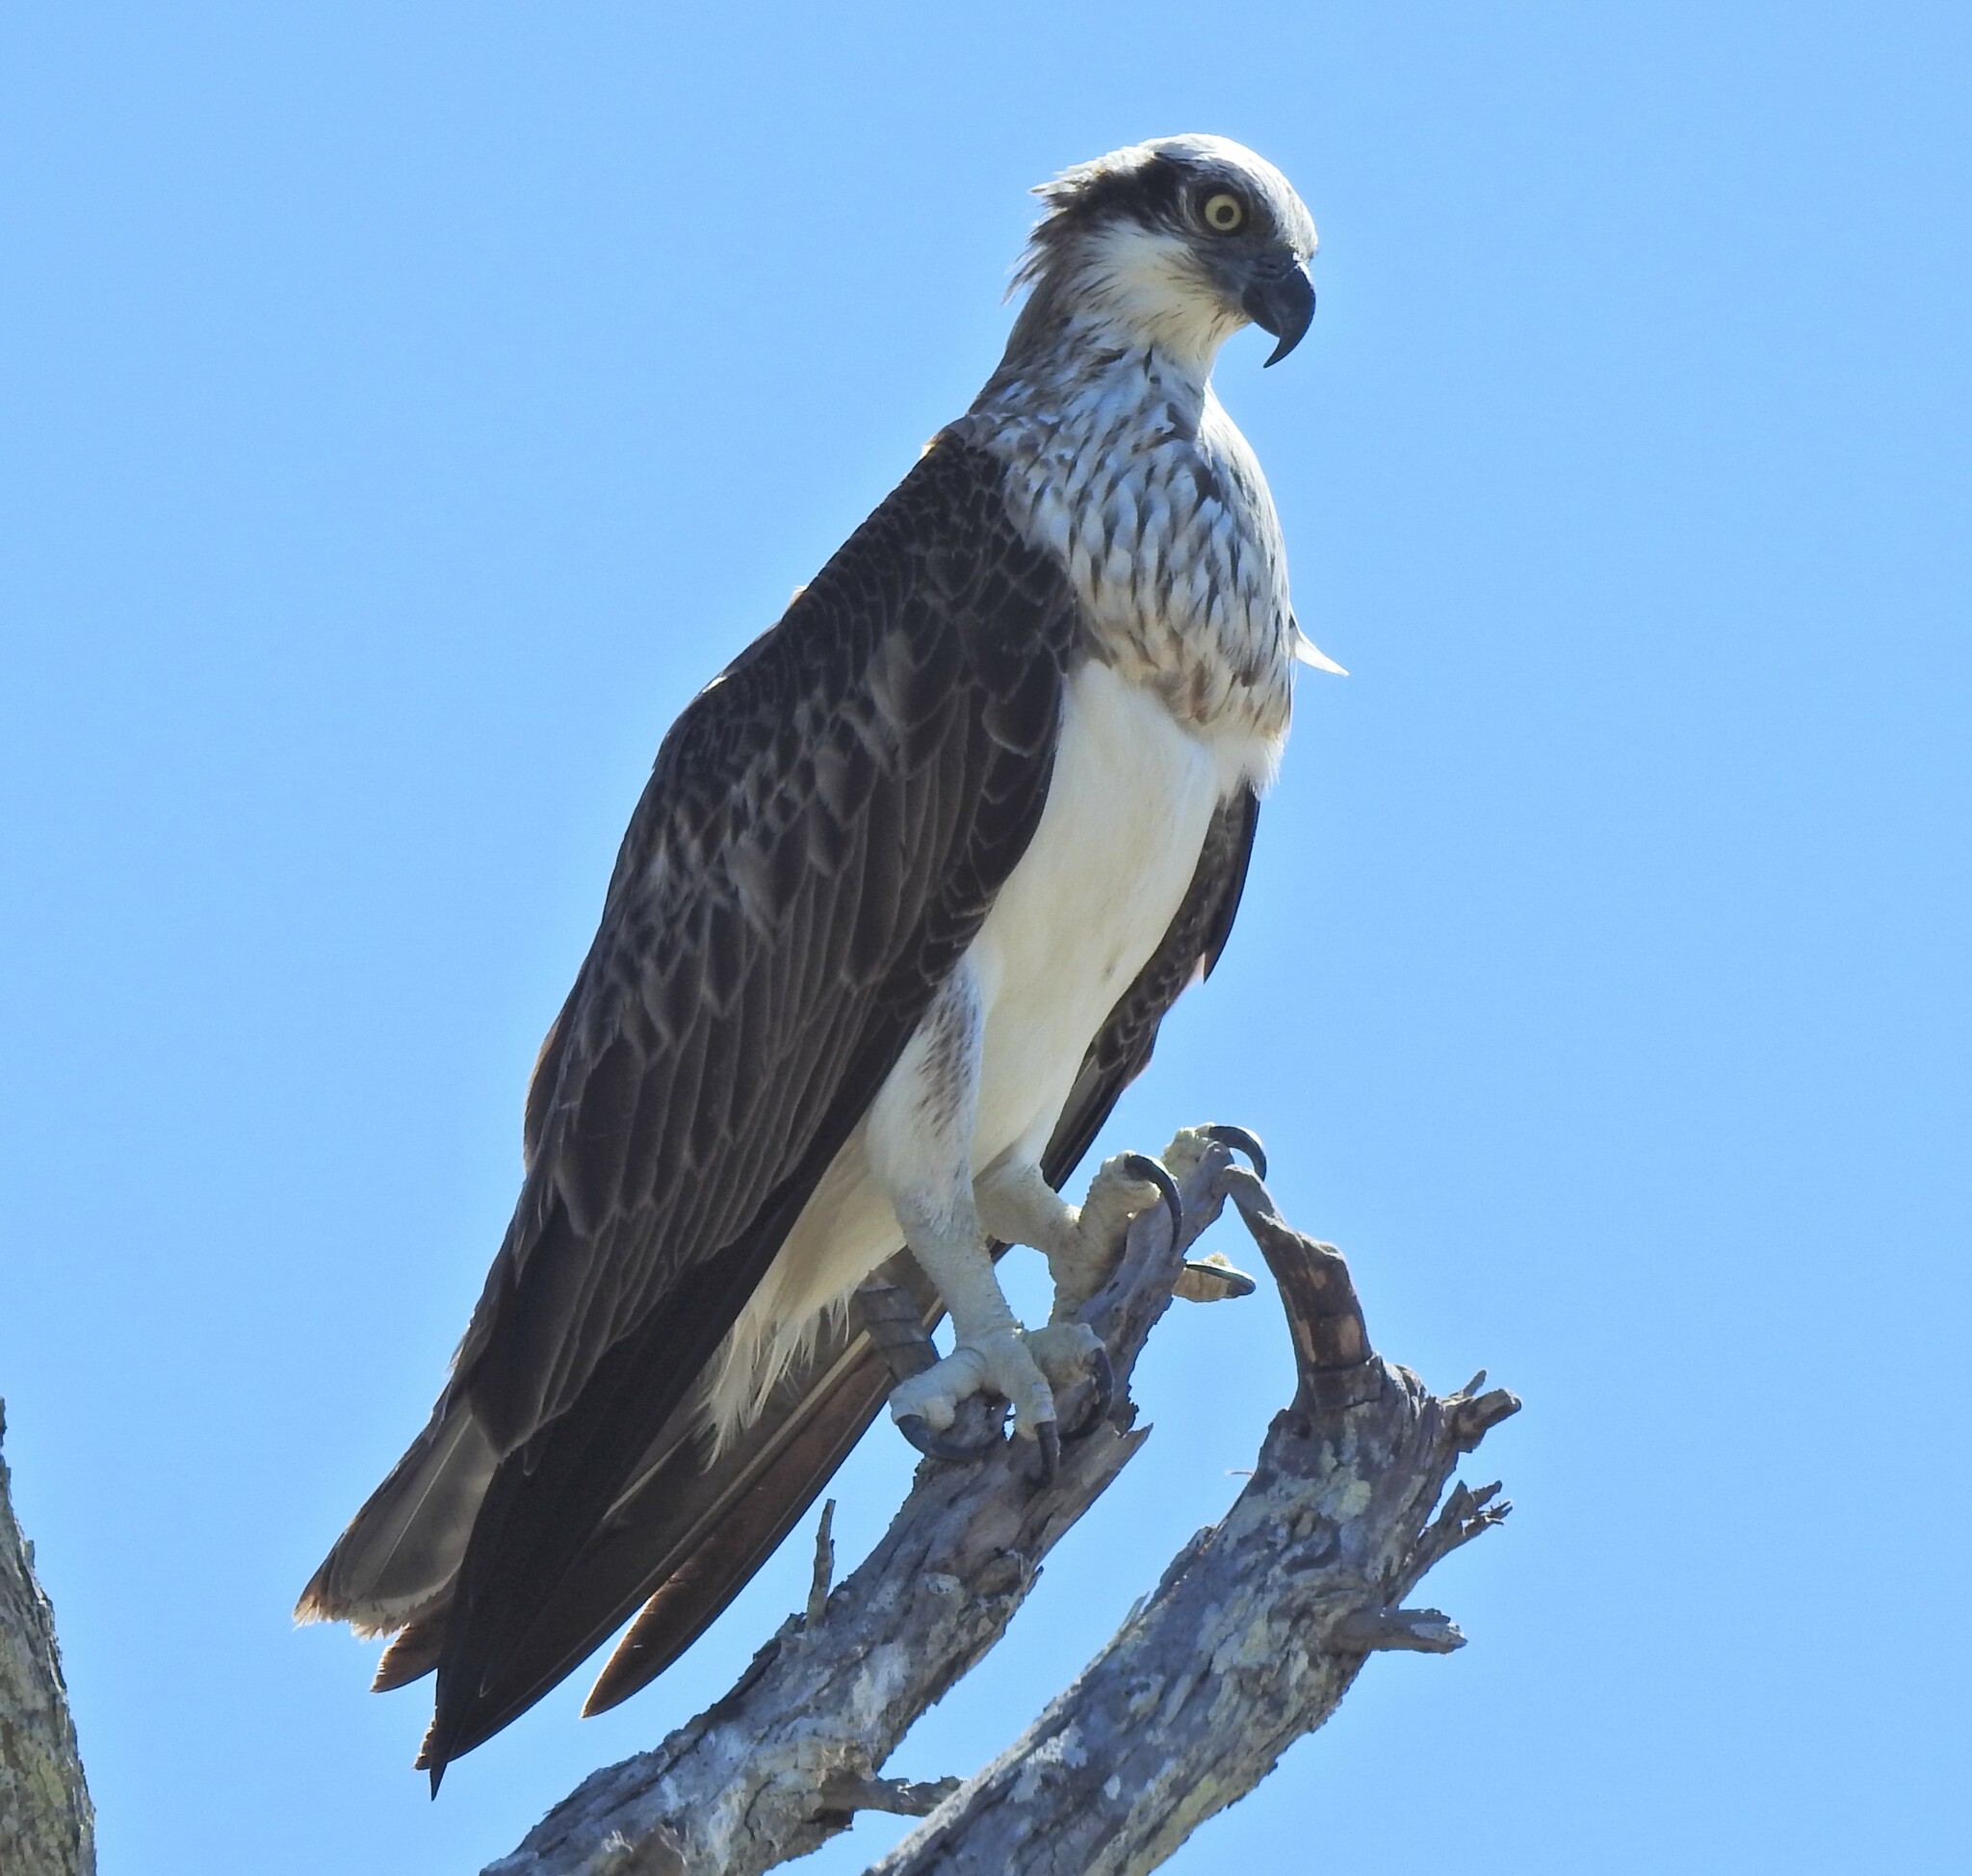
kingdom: Animalia
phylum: Chordata
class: Aves
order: Accipitriformes
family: Pandionidae
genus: Pandion
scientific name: Pandion haliaetus
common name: Osprey
